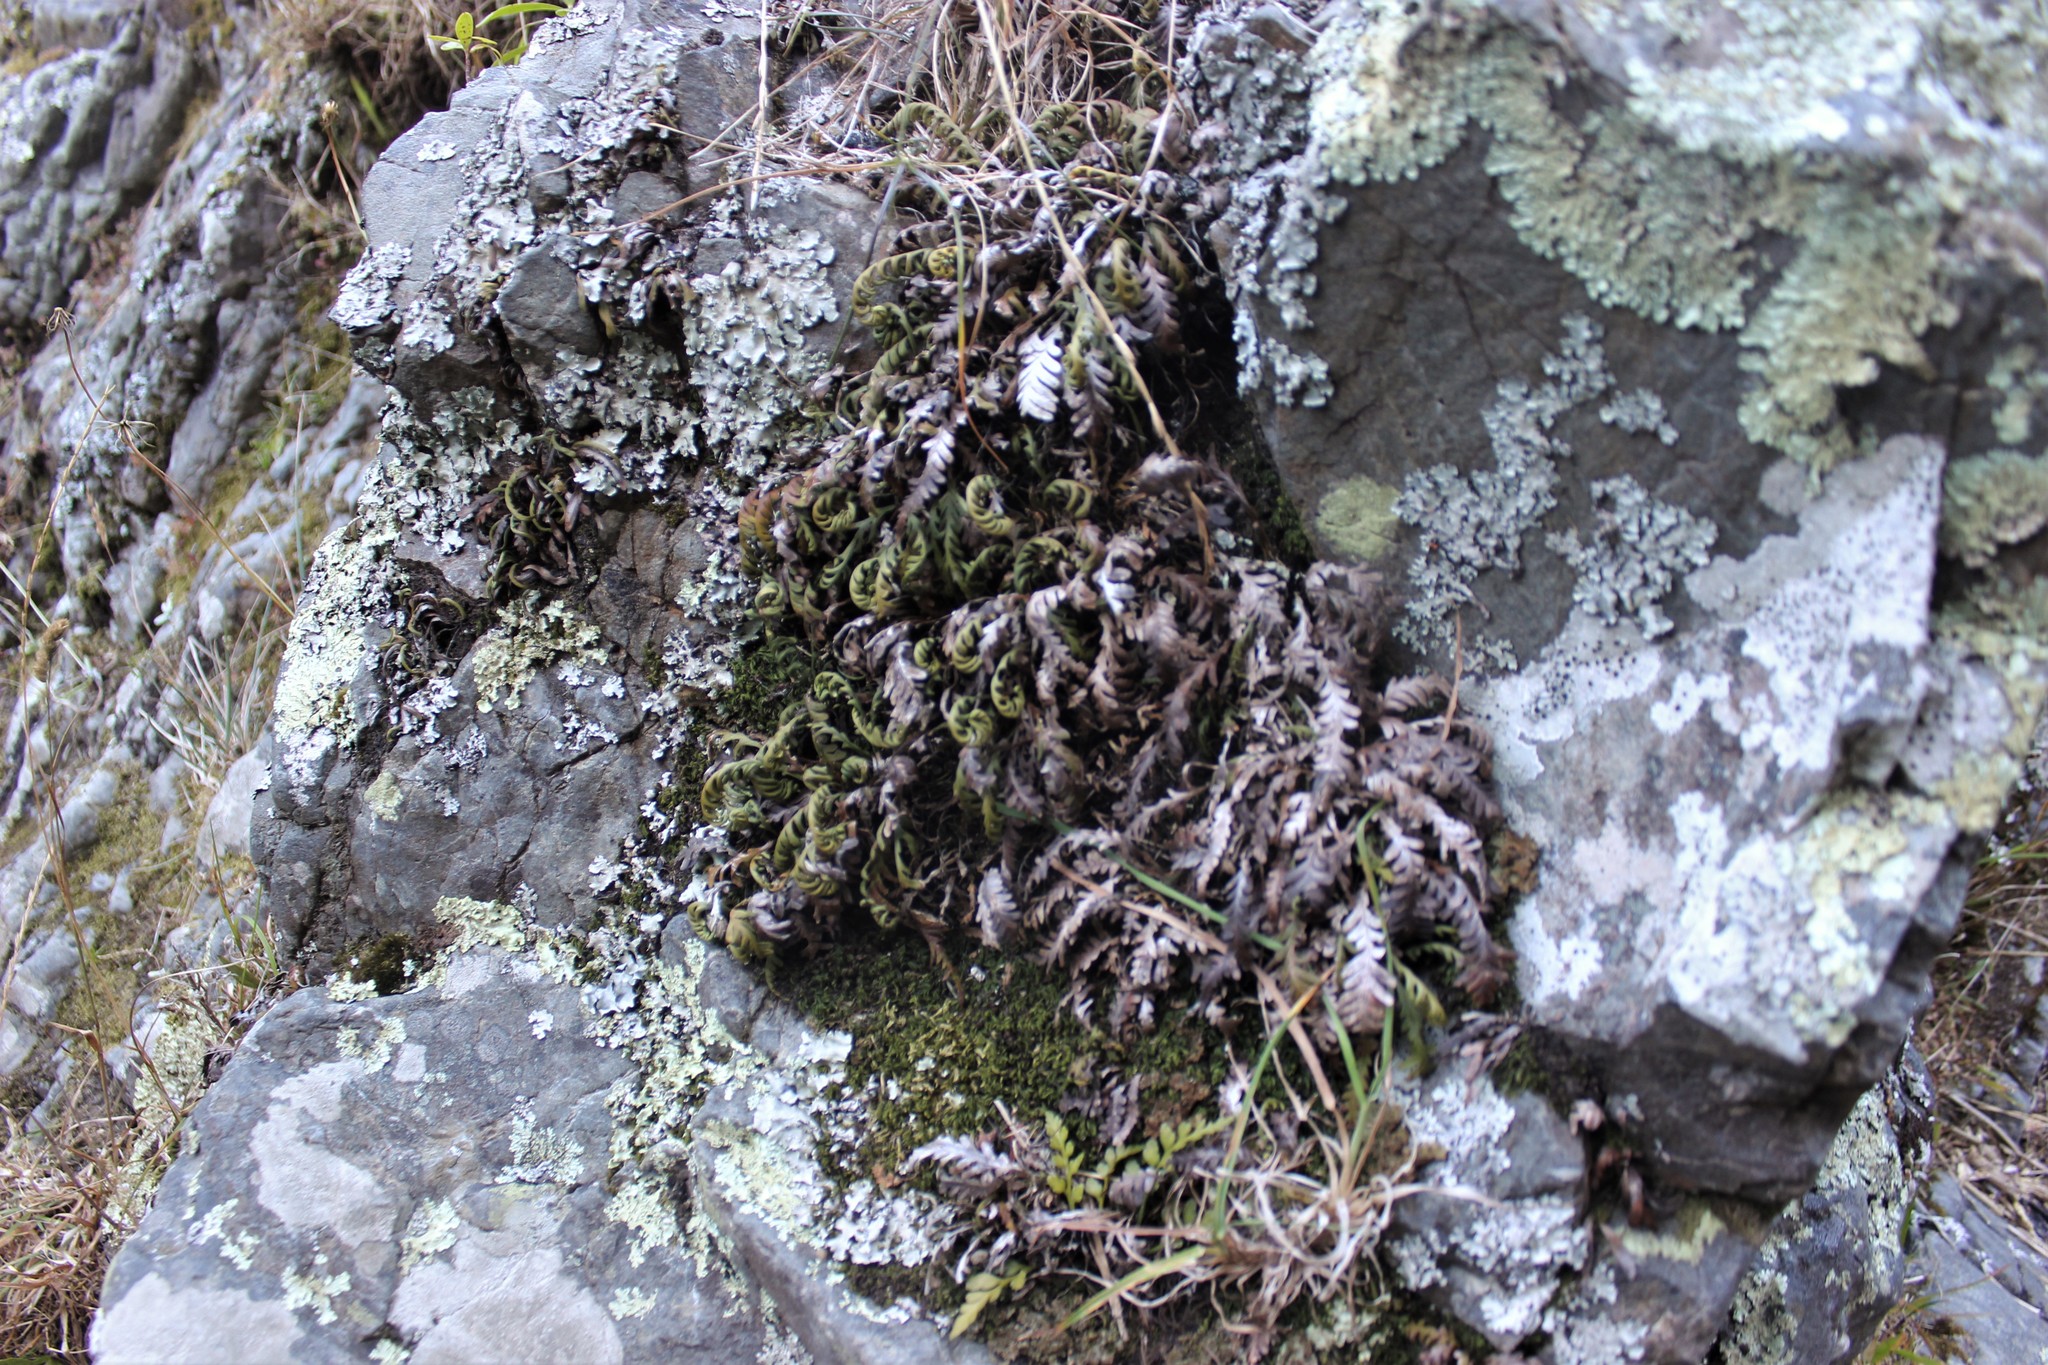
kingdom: Plantae
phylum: Tracheophyta
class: Polypodiopsida
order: Polypodiales
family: Polypodiaceae
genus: Notogrammitis
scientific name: Notogrammitis heterophylla
